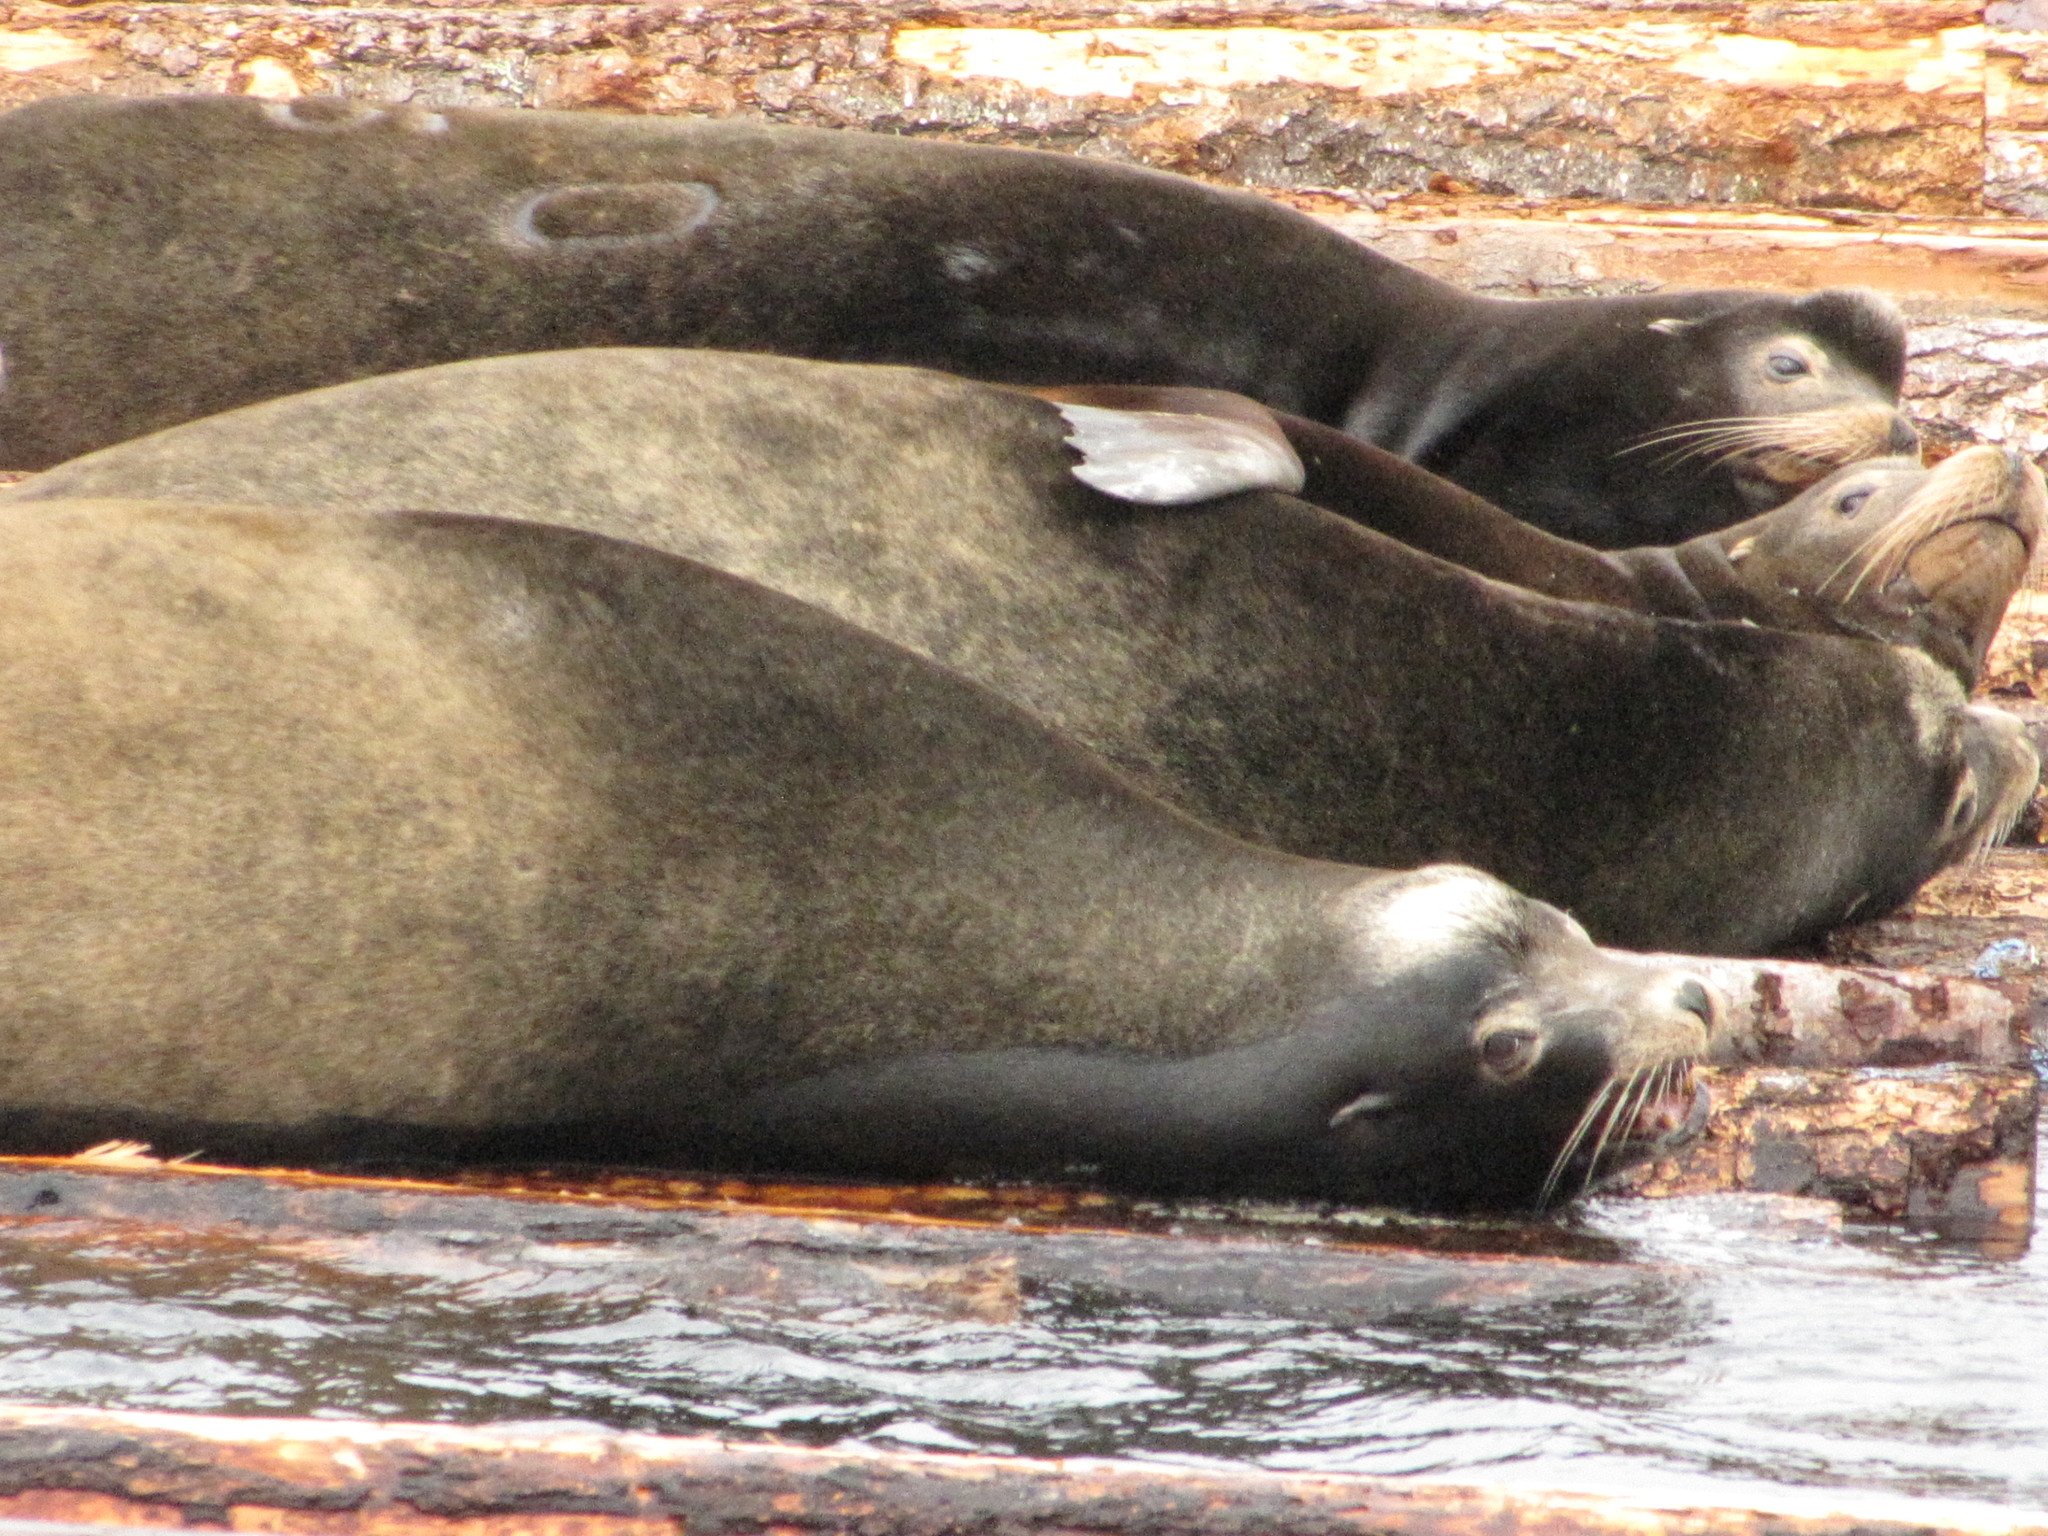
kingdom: Animalia
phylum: Chordata
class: Mammalia
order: Carnivora
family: Otariidae
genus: Zalophus
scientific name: Zalophus californianus
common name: California sea lion
